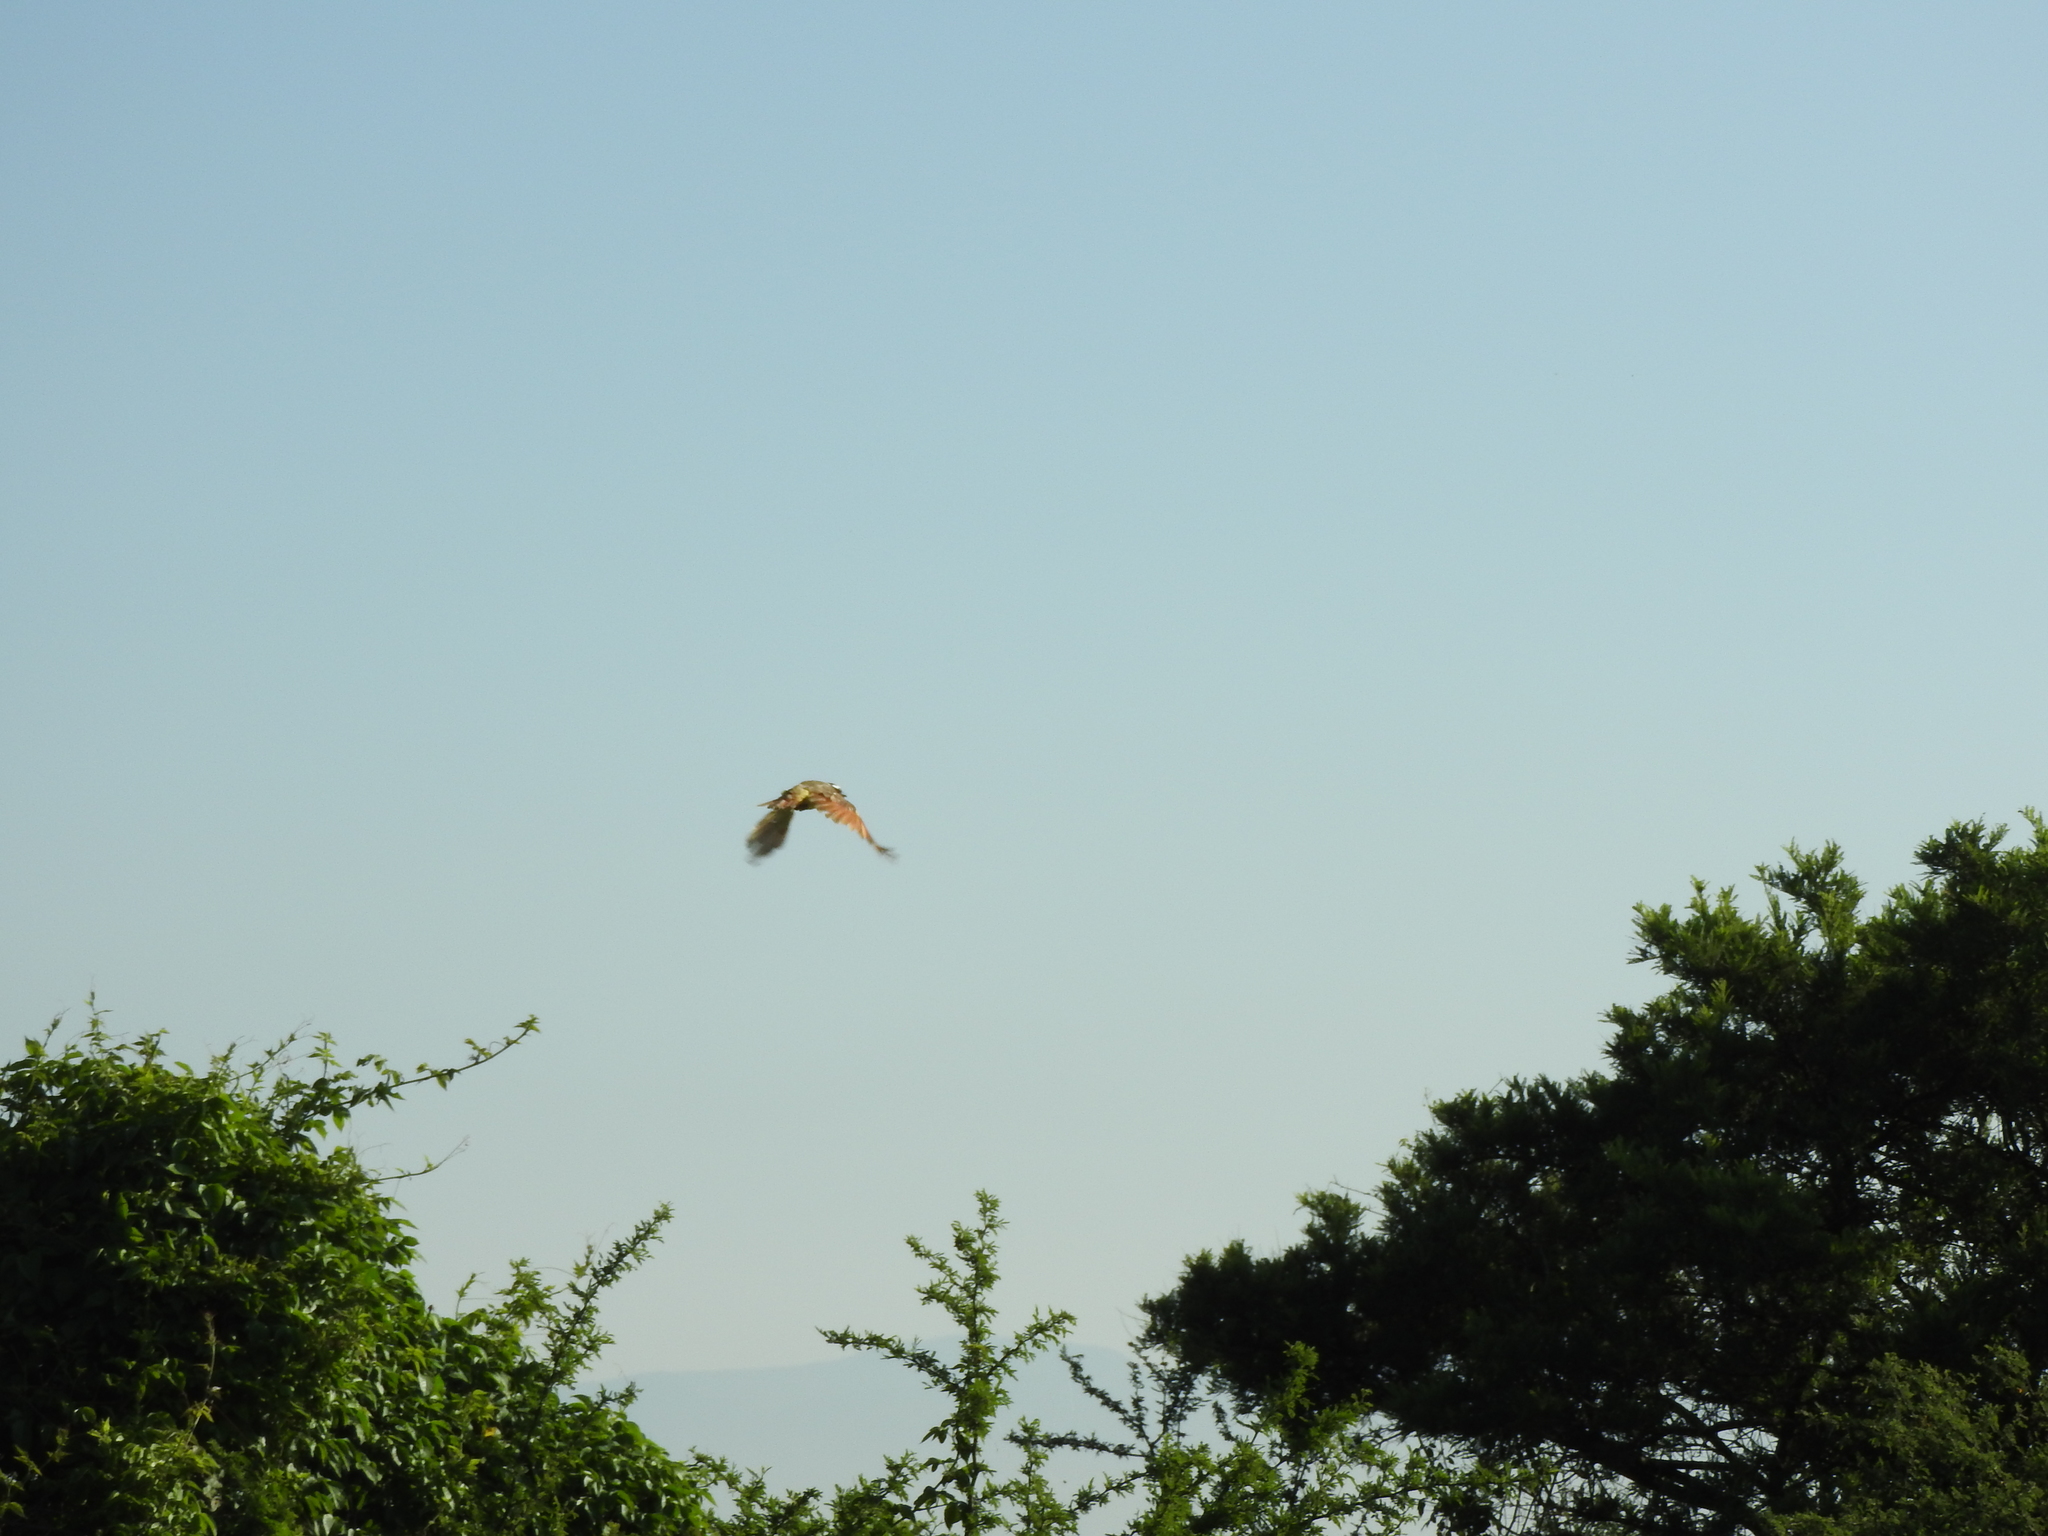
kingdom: Animalia
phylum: Chordata
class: Aves
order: Passeriformes
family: Tyrannidae
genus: Pitangus
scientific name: Pitangus sulphuratus
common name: Great kiskadee
